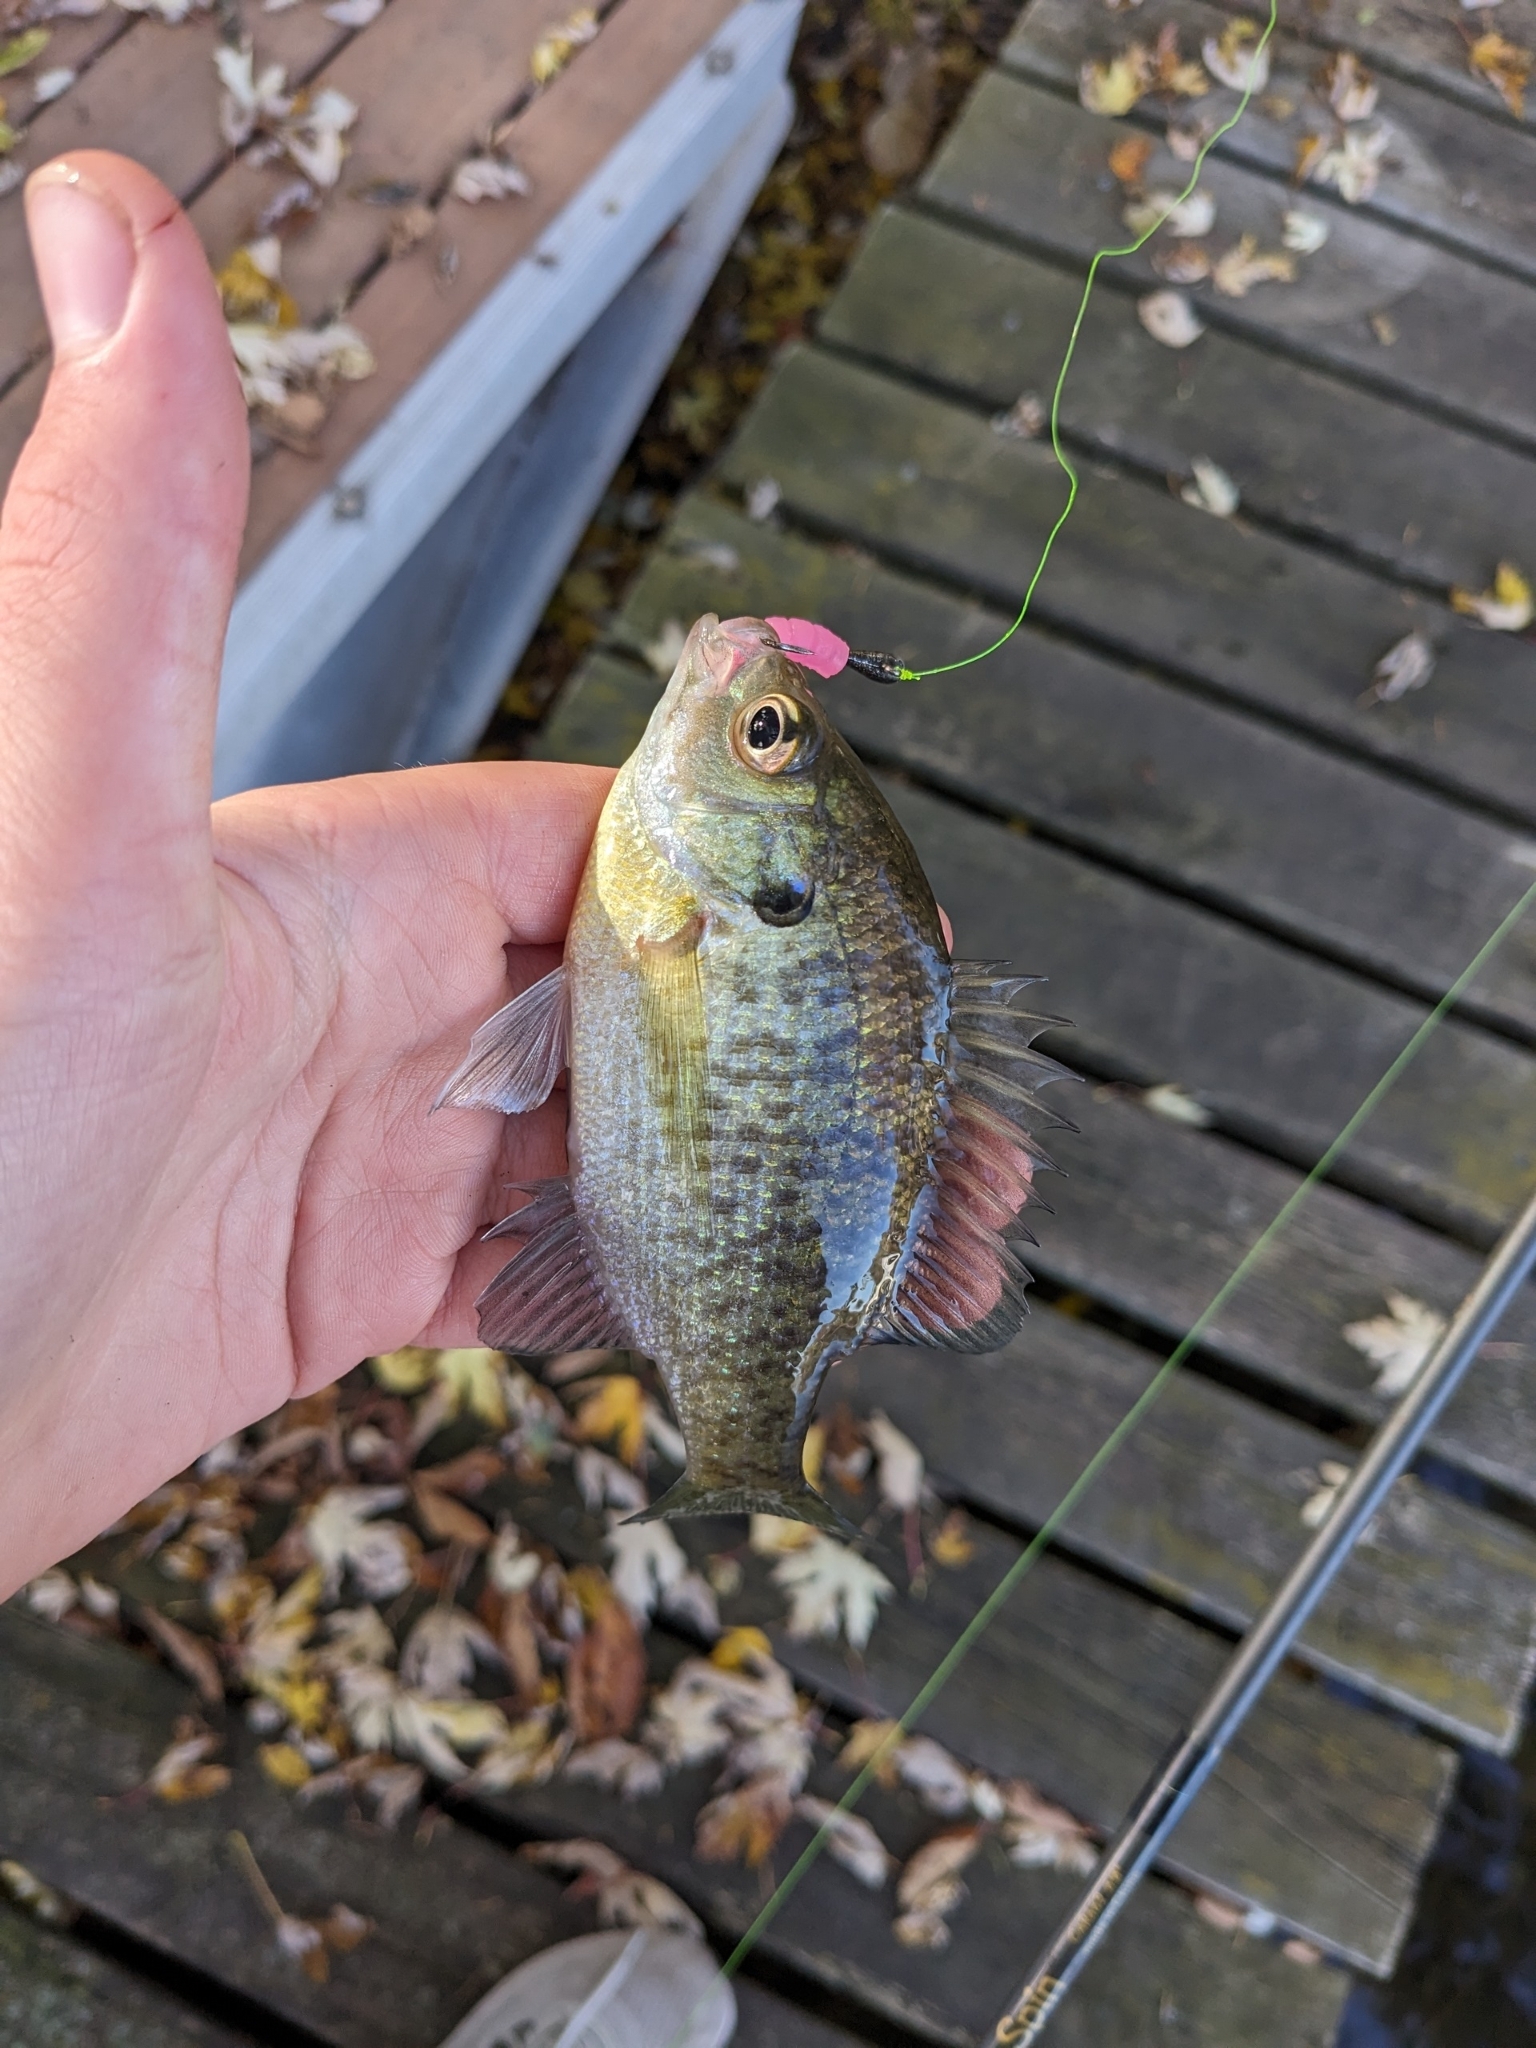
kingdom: Animalia
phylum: Chordata
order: Perciformes
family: Centrarchidae
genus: Lepomis
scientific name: Lepomis macrochirus
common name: Bluegill
